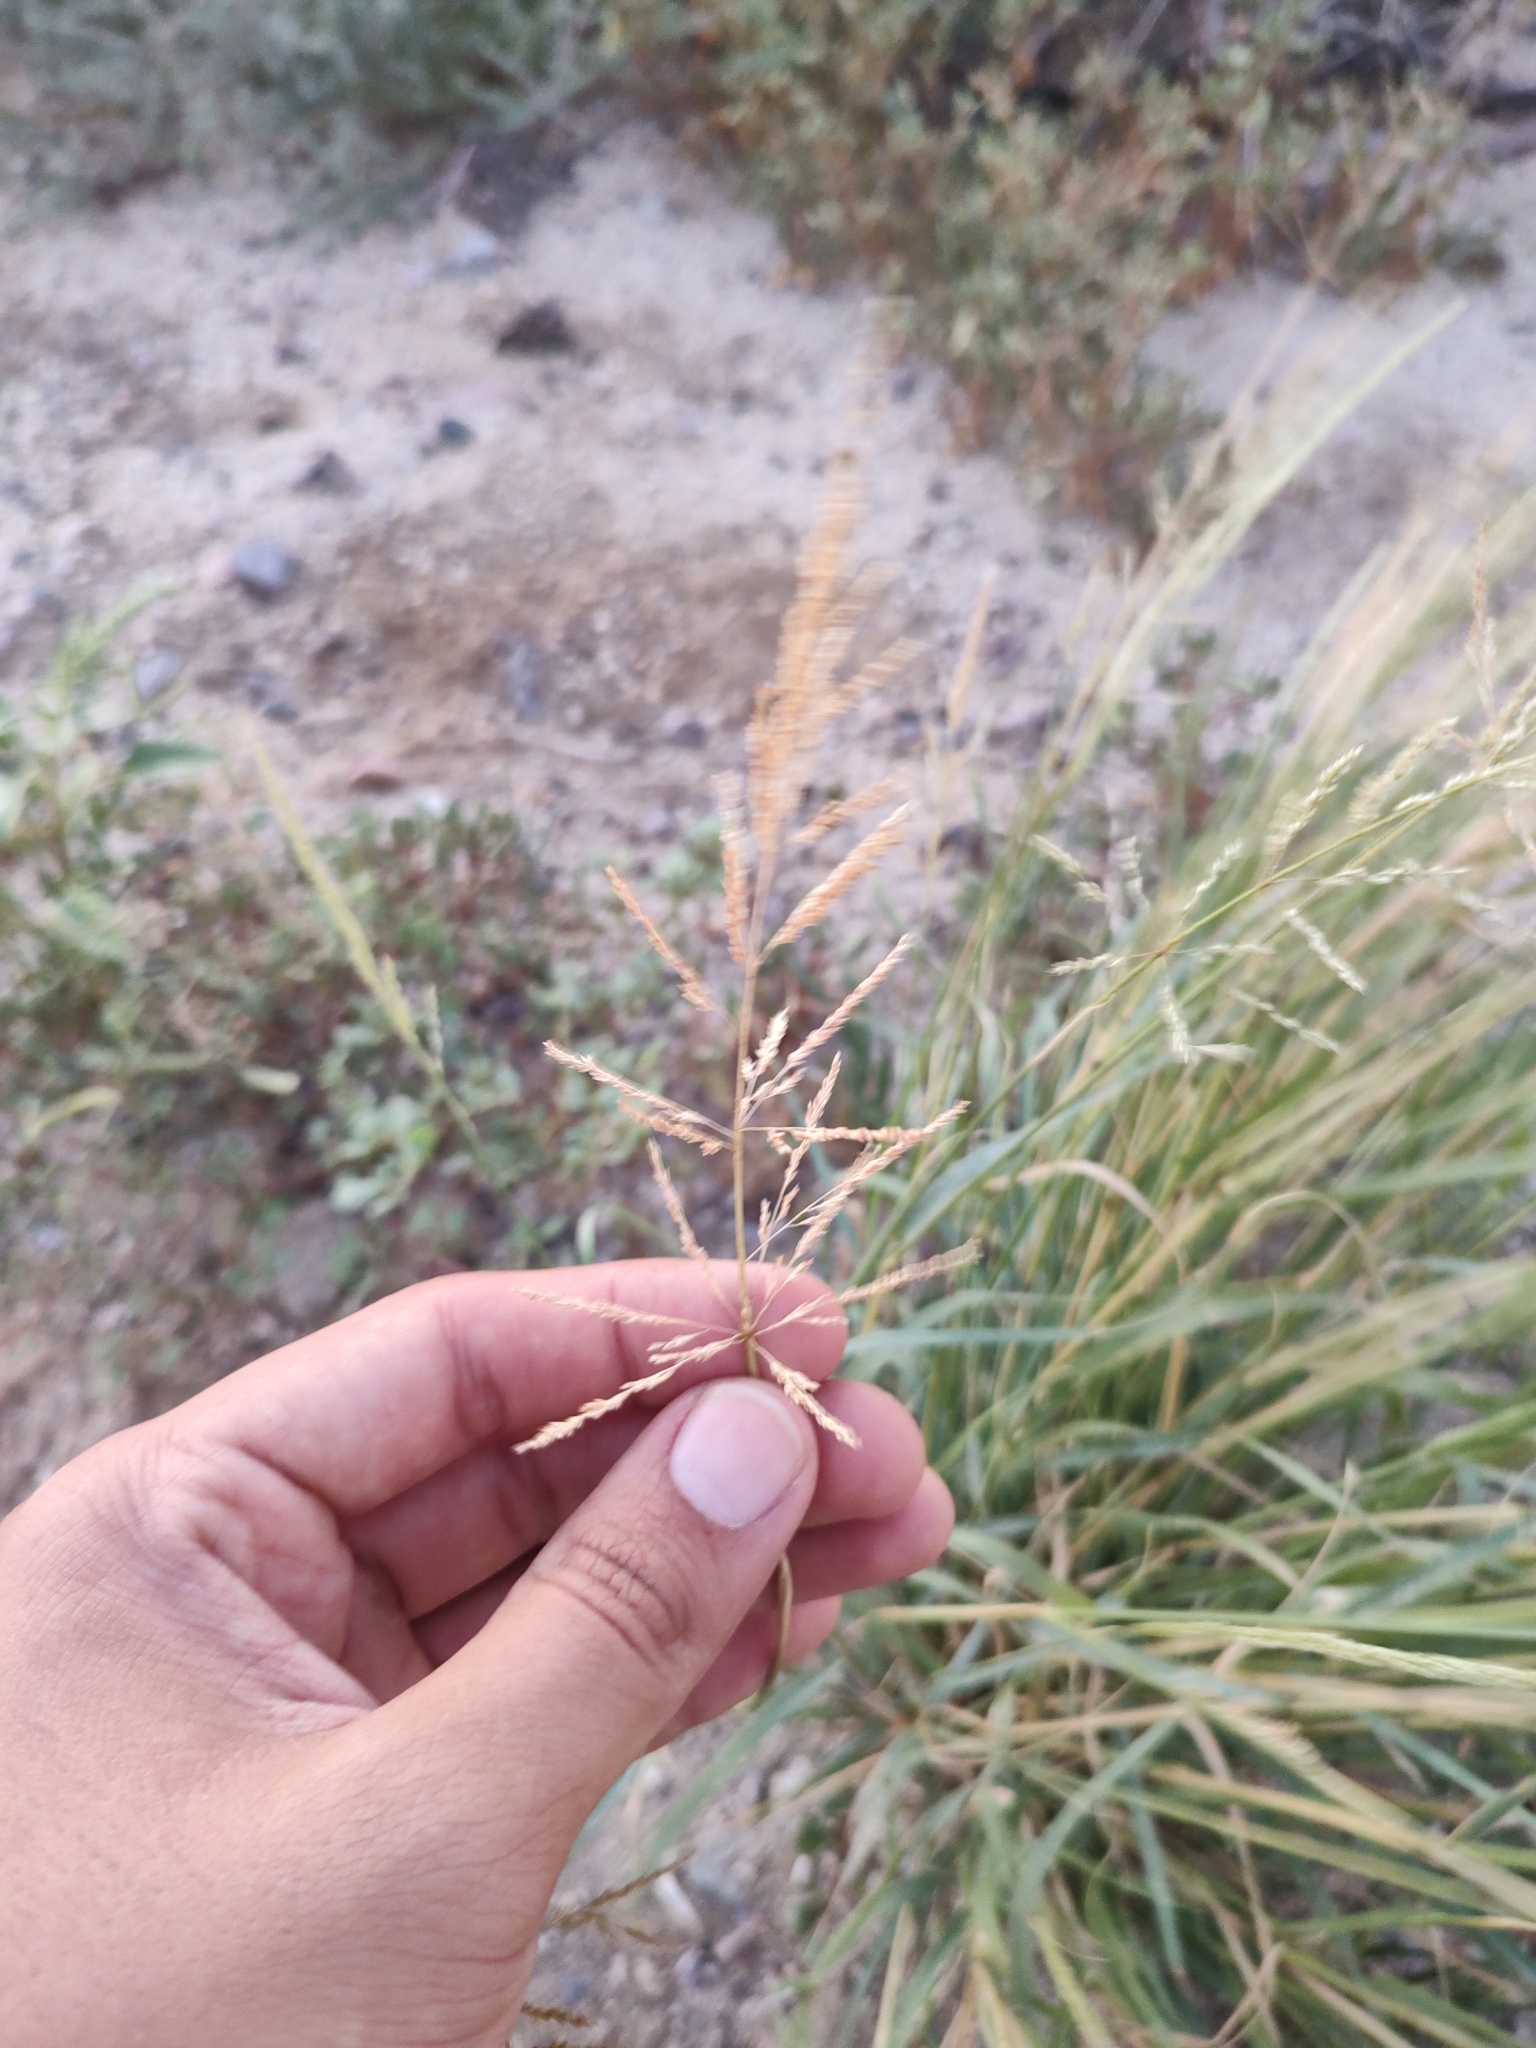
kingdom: Plantae
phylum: Tracheophyta
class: Liliopsida
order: Poales
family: Poaceae
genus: Sporobolus
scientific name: Sporobolus pyramidatus
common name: Whorled dropseed
